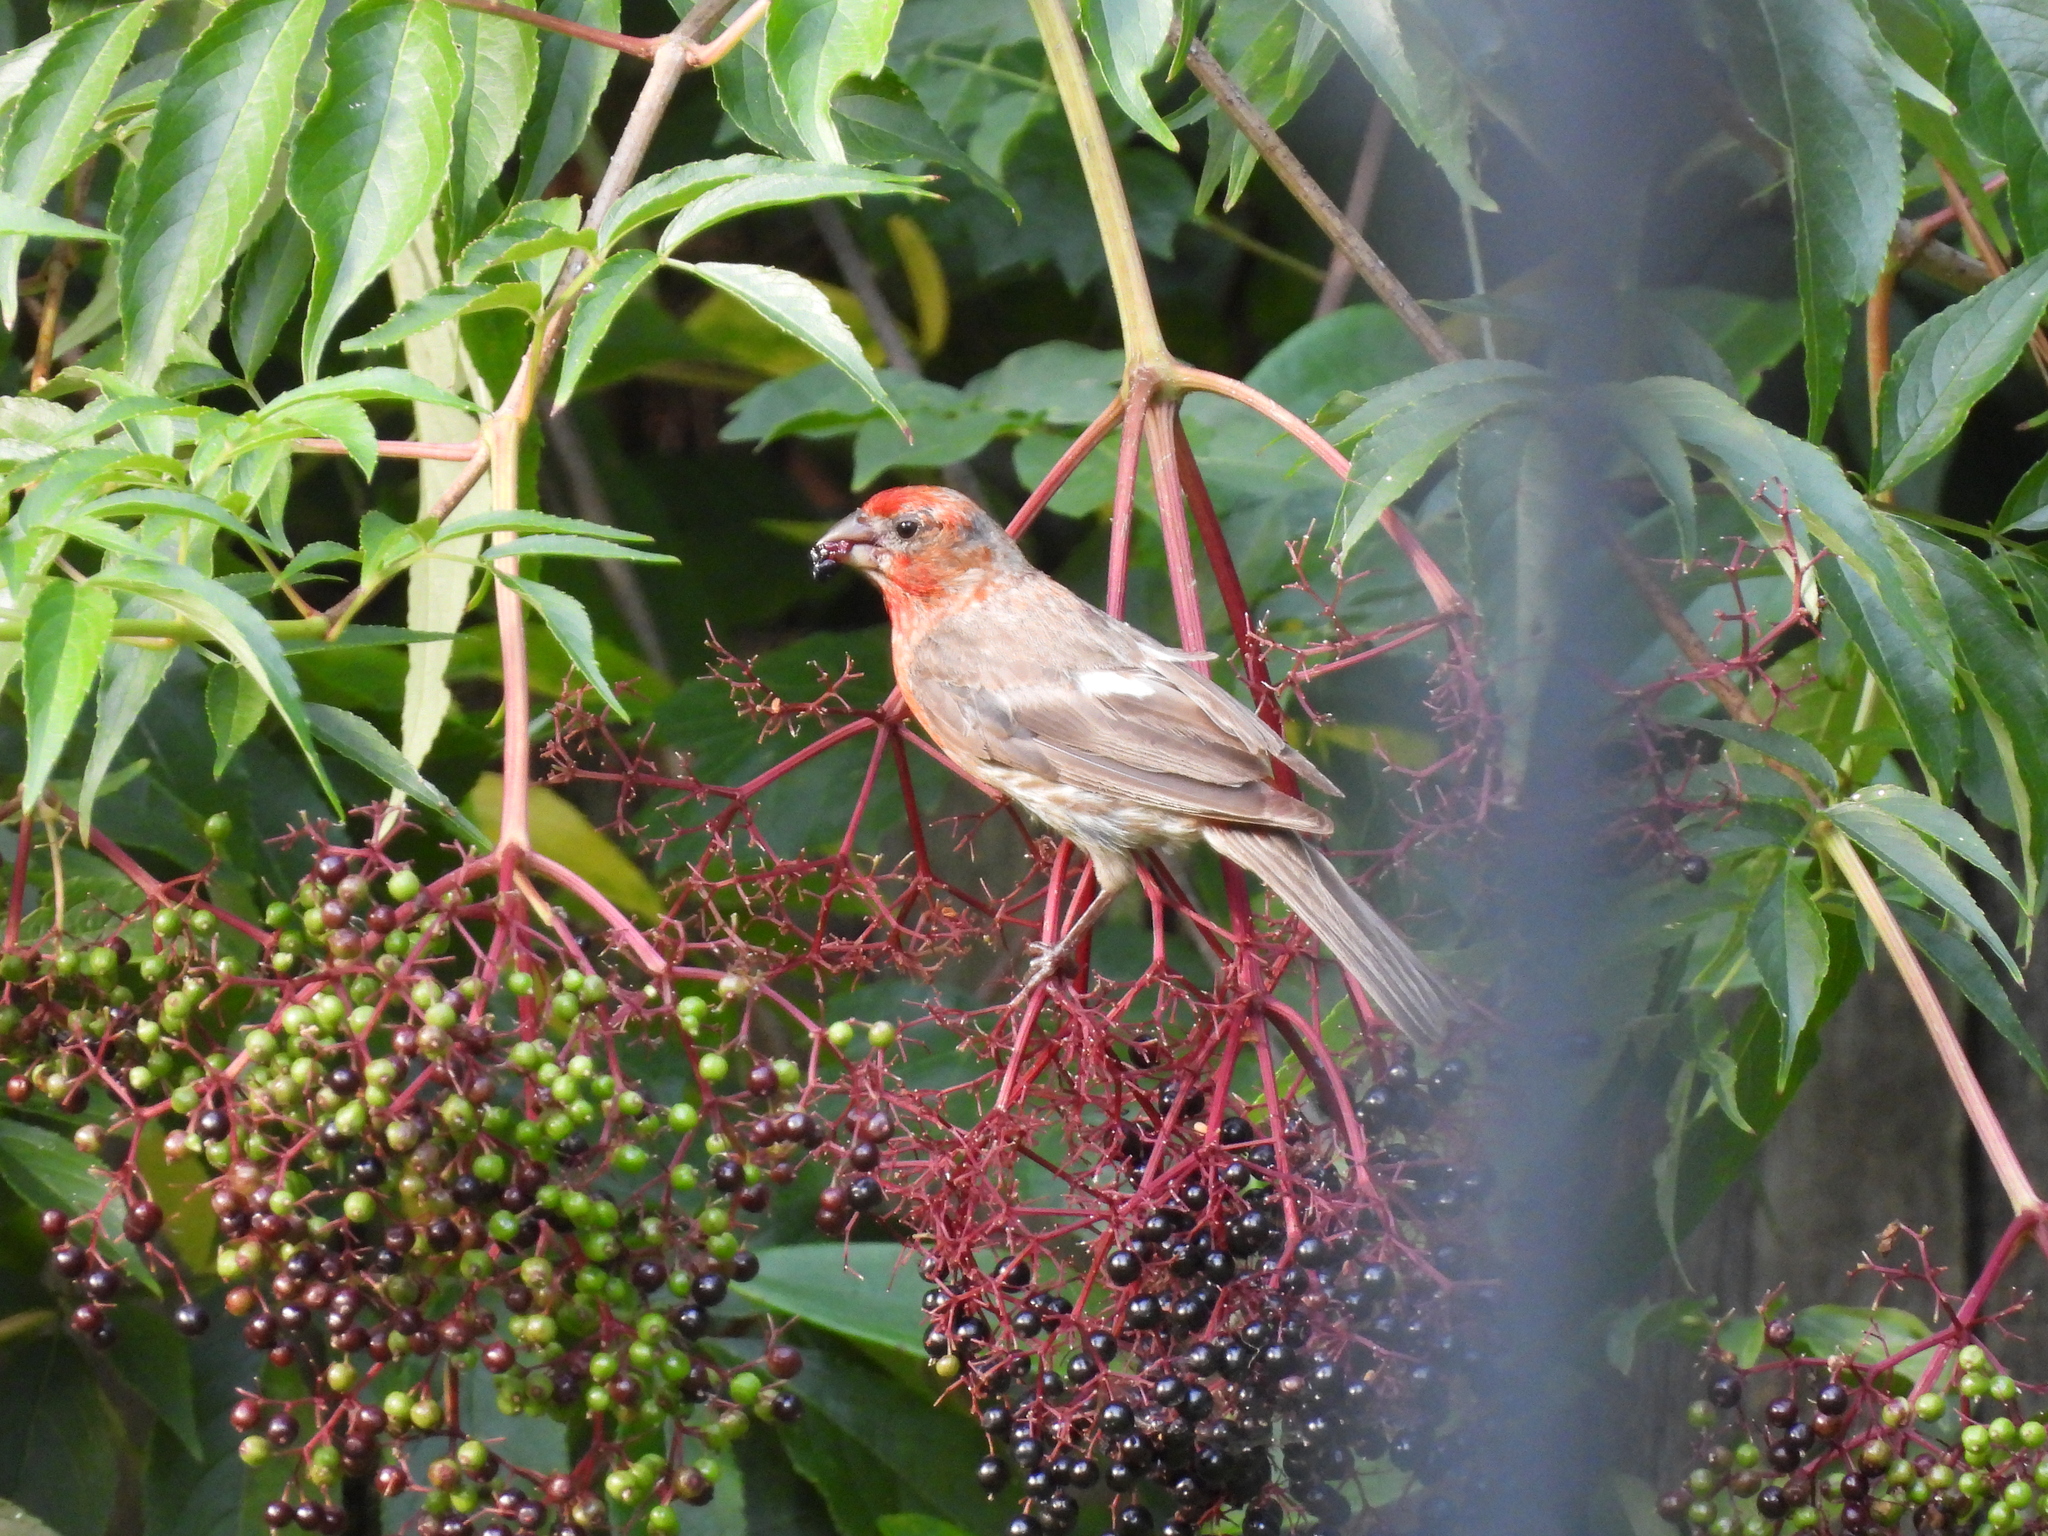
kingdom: Animalia
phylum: Chordata
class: Aves
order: Passeriformes
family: Fringillidae
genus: Haemorhous
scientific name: Haemorhous mexicanus
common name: House finch
